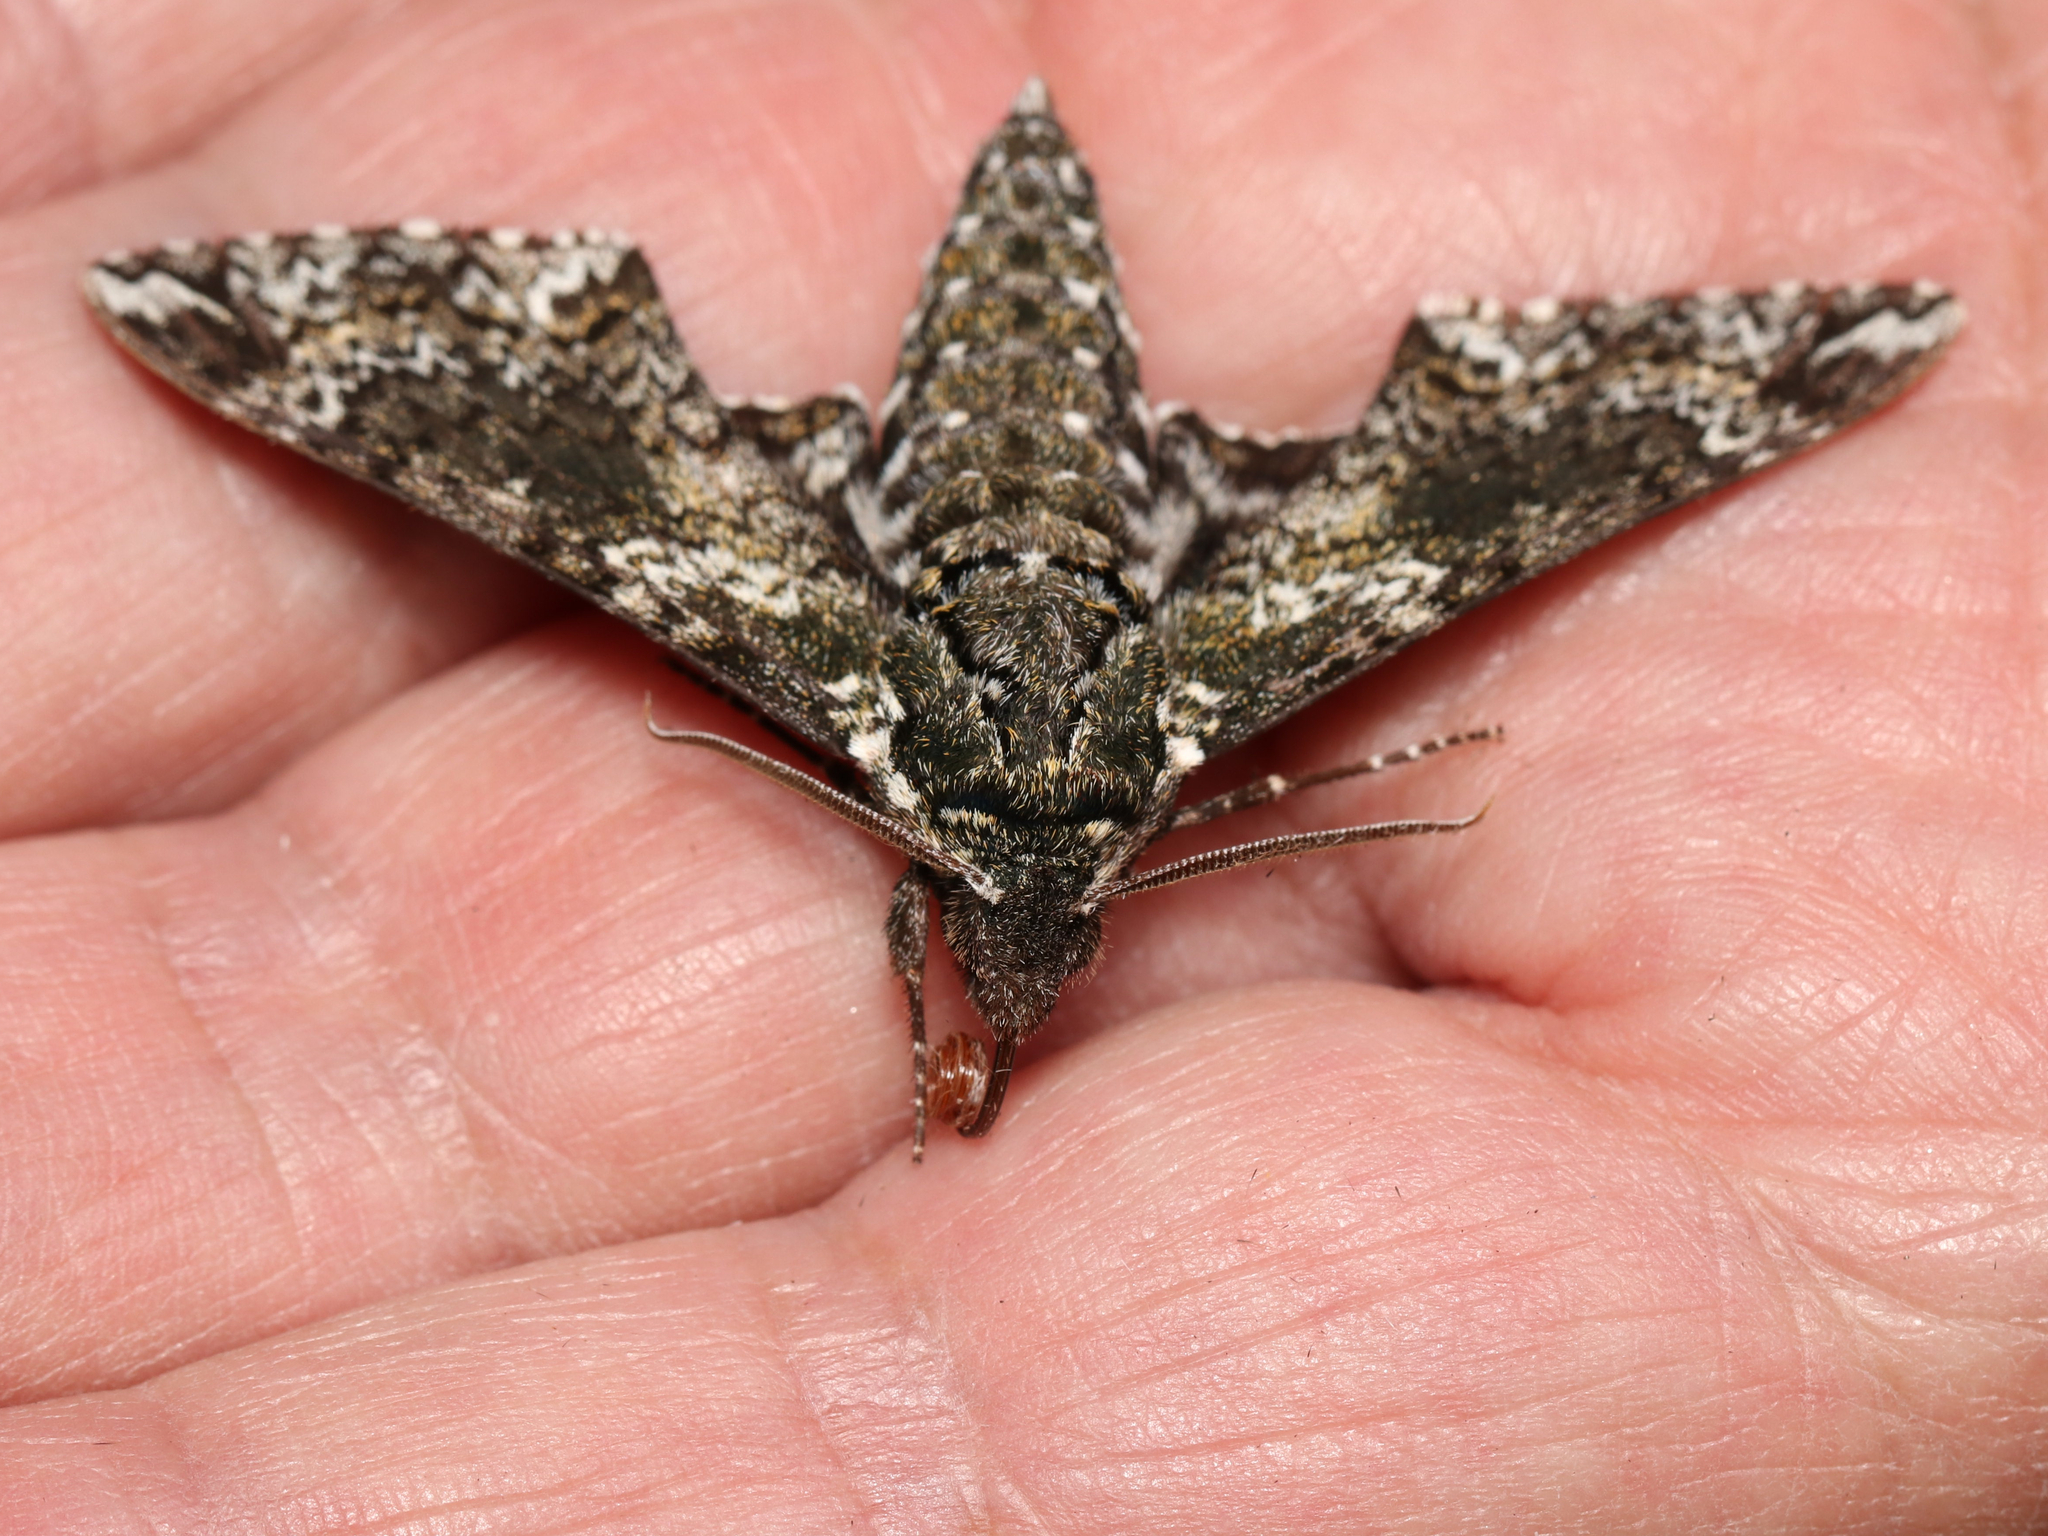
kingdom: Animalia
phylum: Arthropoda
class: Insecta
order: Lepidoptera
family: Sphingidae
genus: Dolba
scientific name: Dolba hyloeus
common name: Pawpaw sphinx
